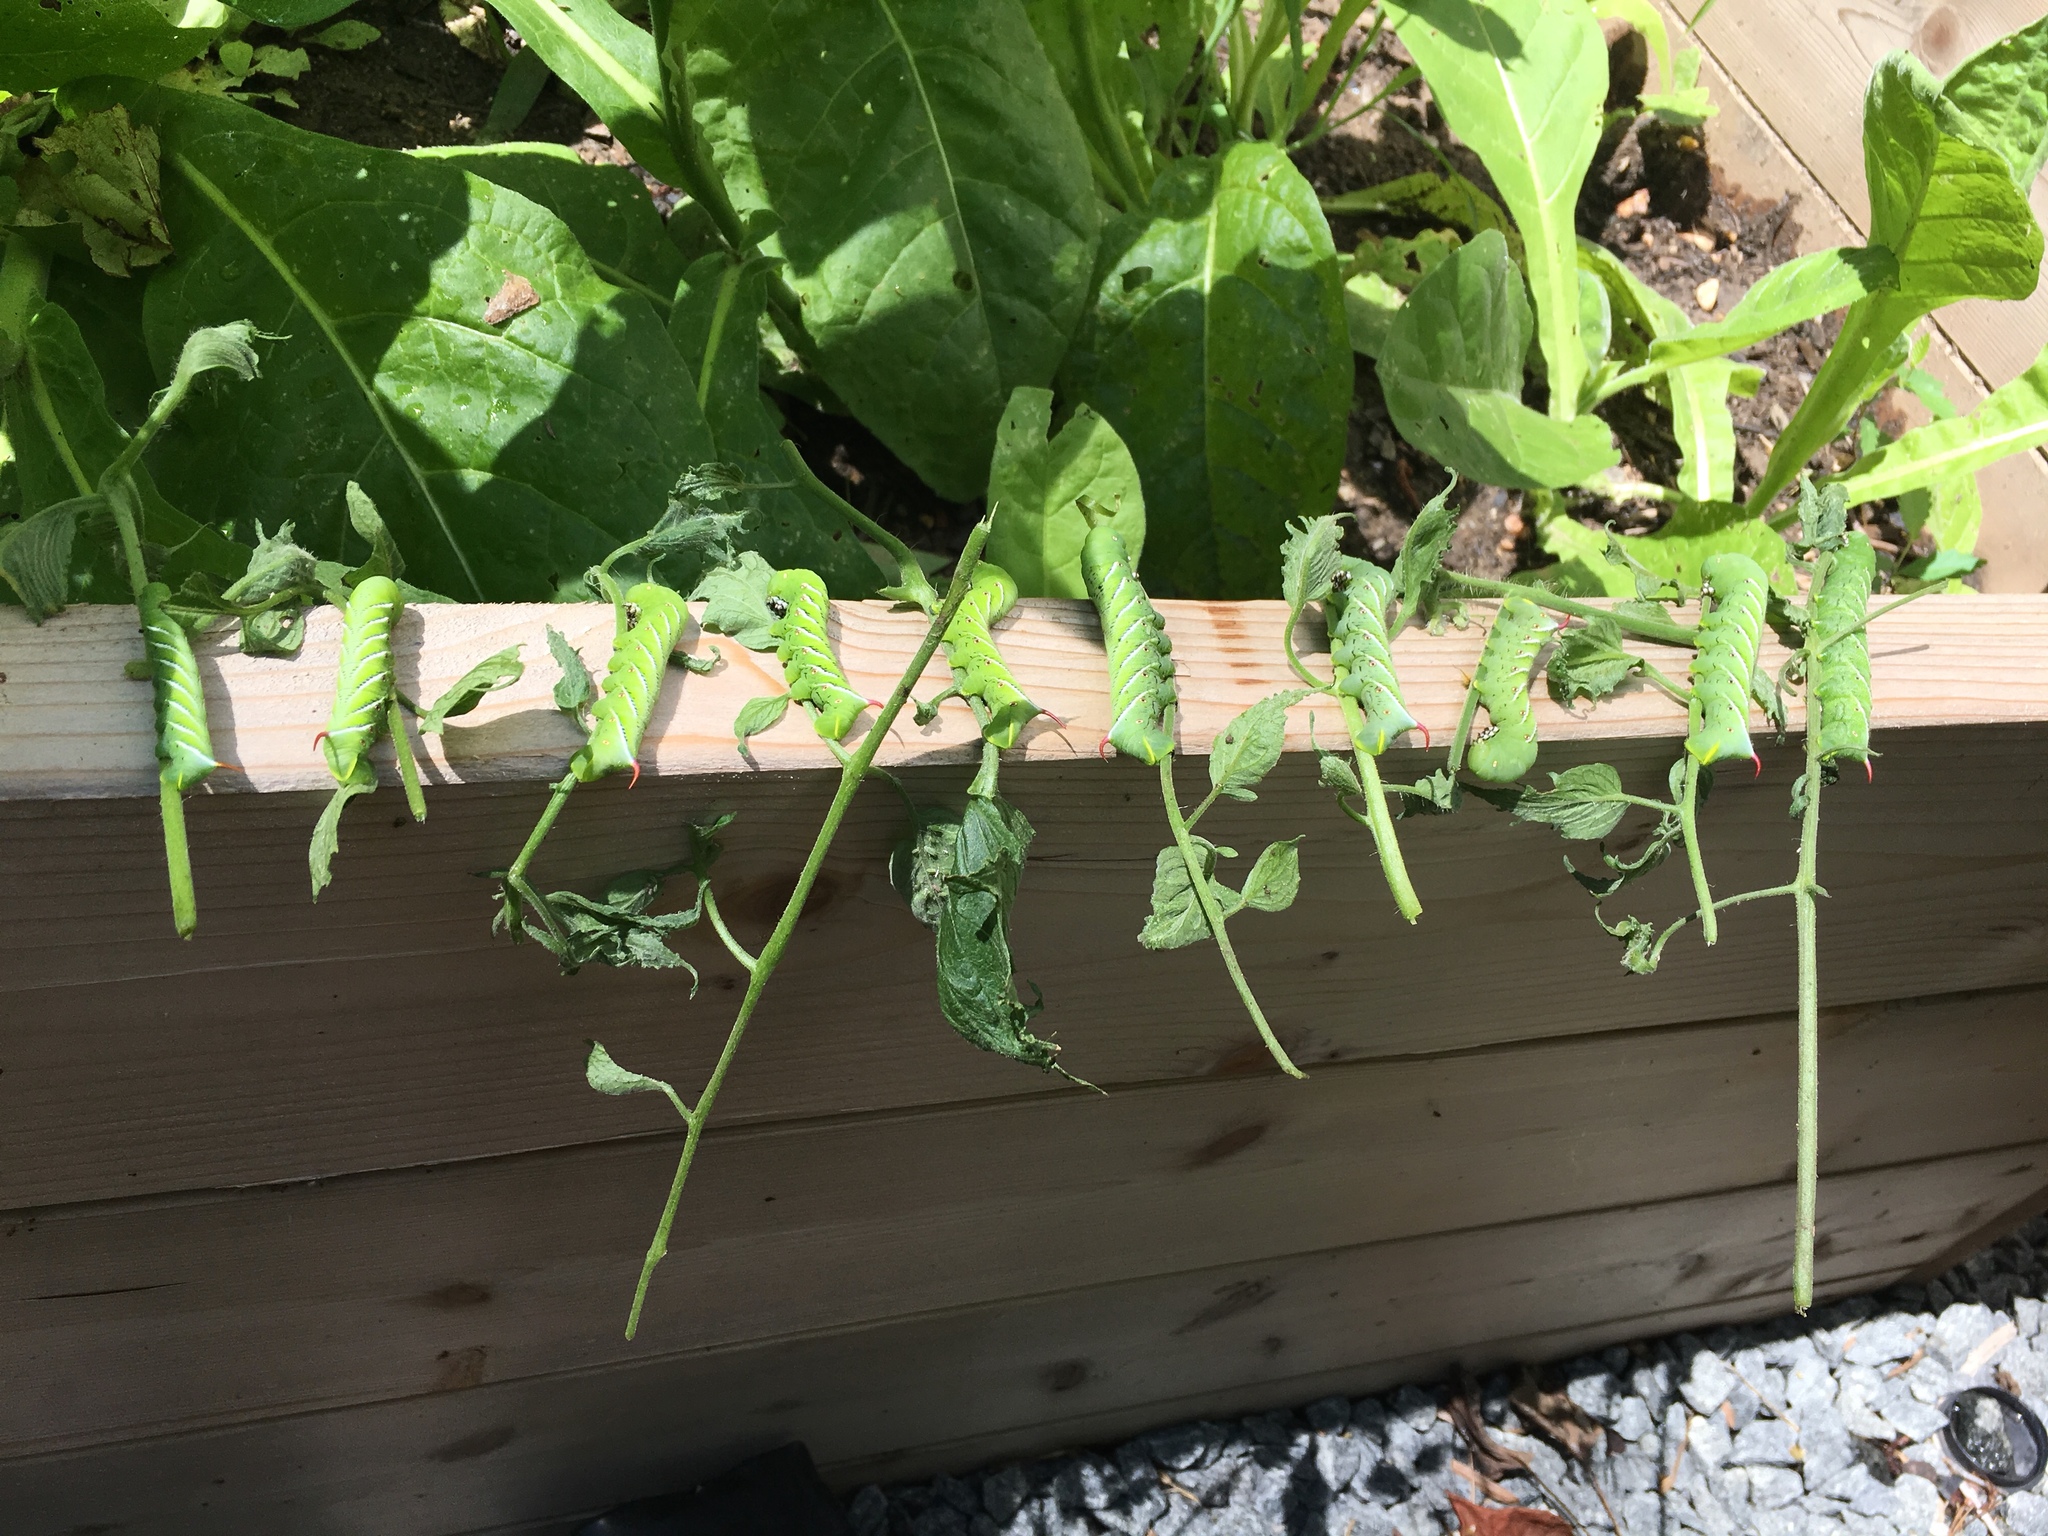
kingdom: Animalia
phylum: Arthropoda
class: Insecta
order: Lepidoptera
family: Sphingidae
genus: Manduca
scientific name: Manduca sexta
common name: Carolina sphinx
